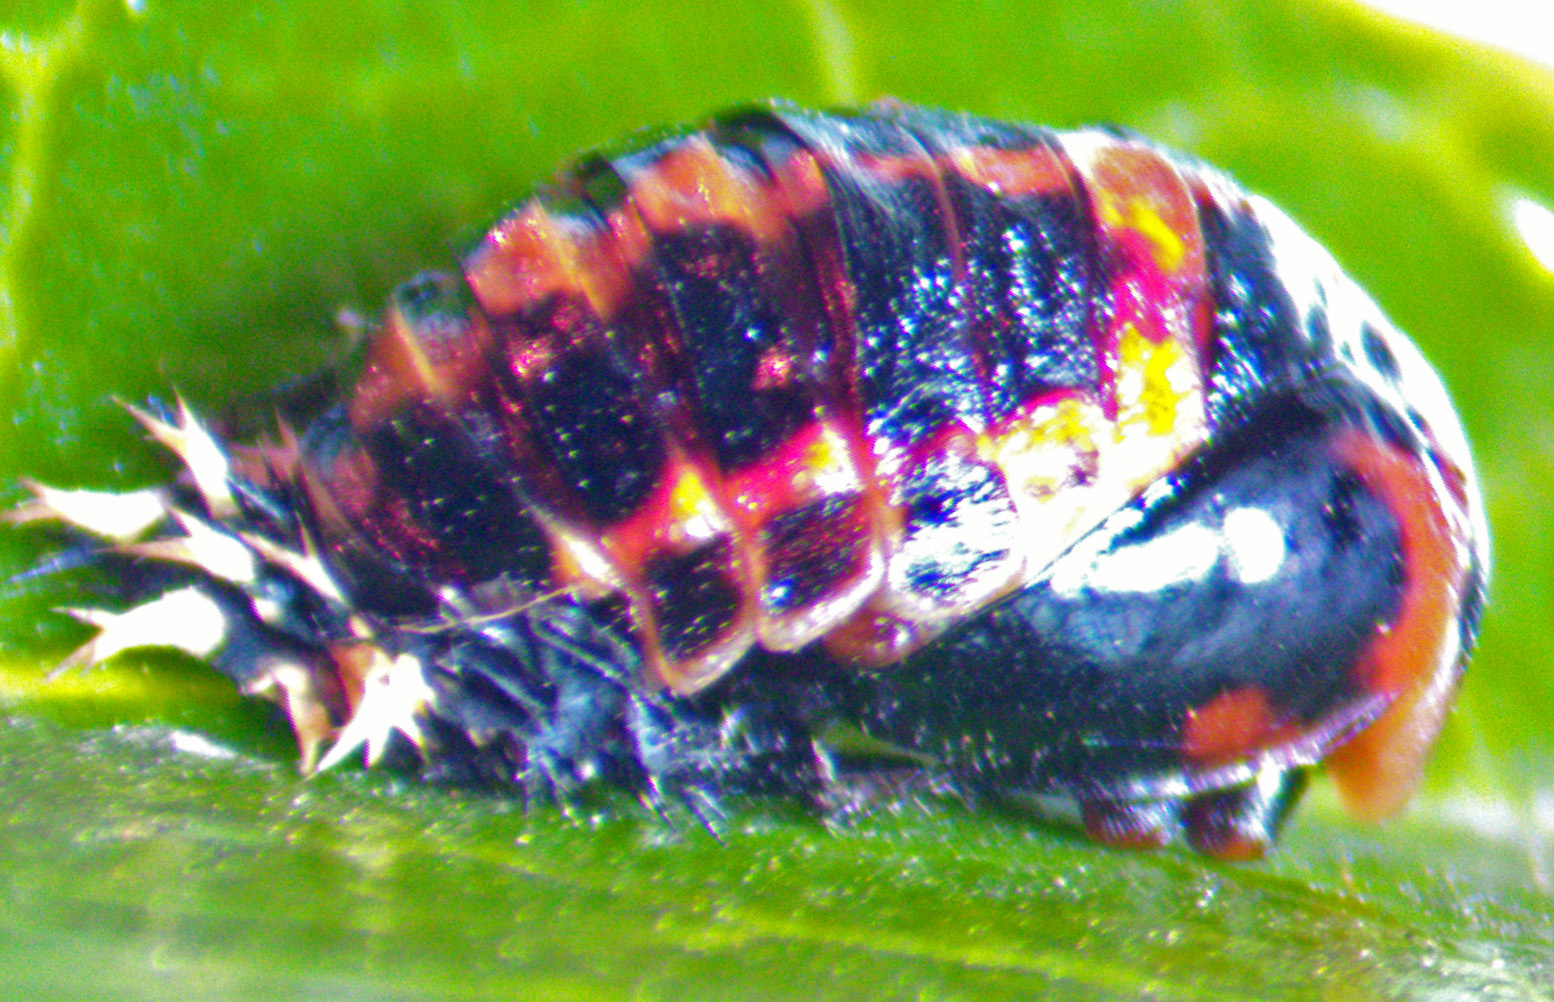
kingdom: Animalia
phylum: Arthropoda
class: Insecta
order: Coleoptera
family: Coccinellidae
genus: Harmonia
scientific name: Harmonia axyridis
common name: Harlequin ladybird
